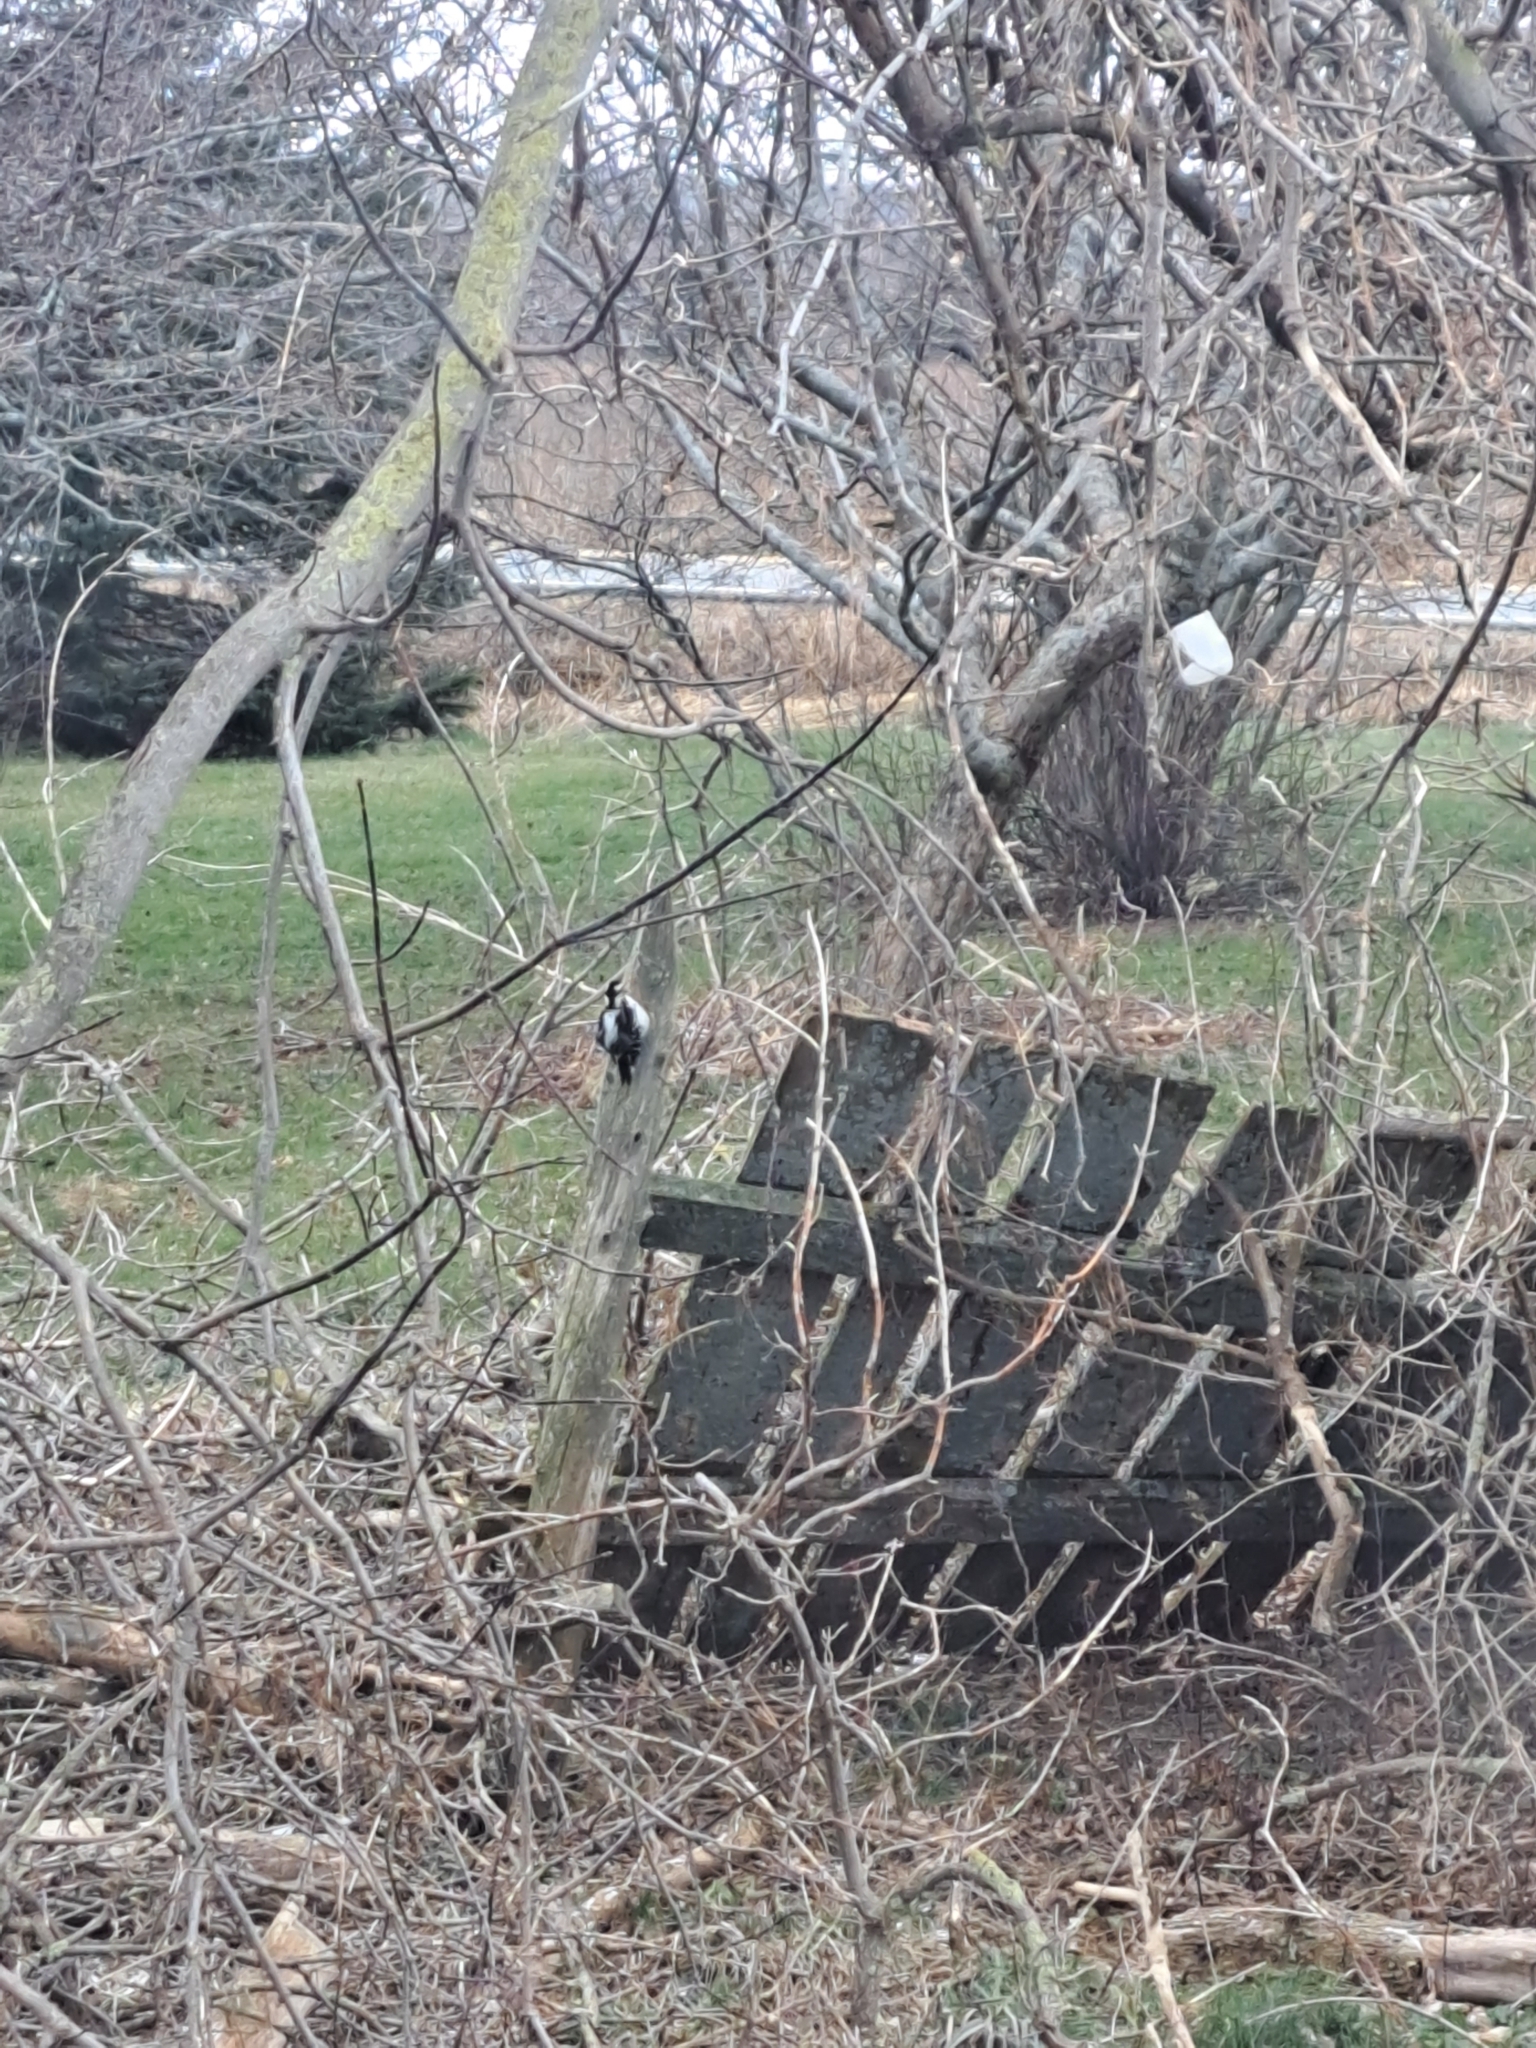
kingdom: Animalia
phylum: Chordata
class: Aves
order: Piciformes
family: Picidae
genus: Leuconotopicus
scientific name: Leuconotopicus villosus
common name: Hairy woodpecker
